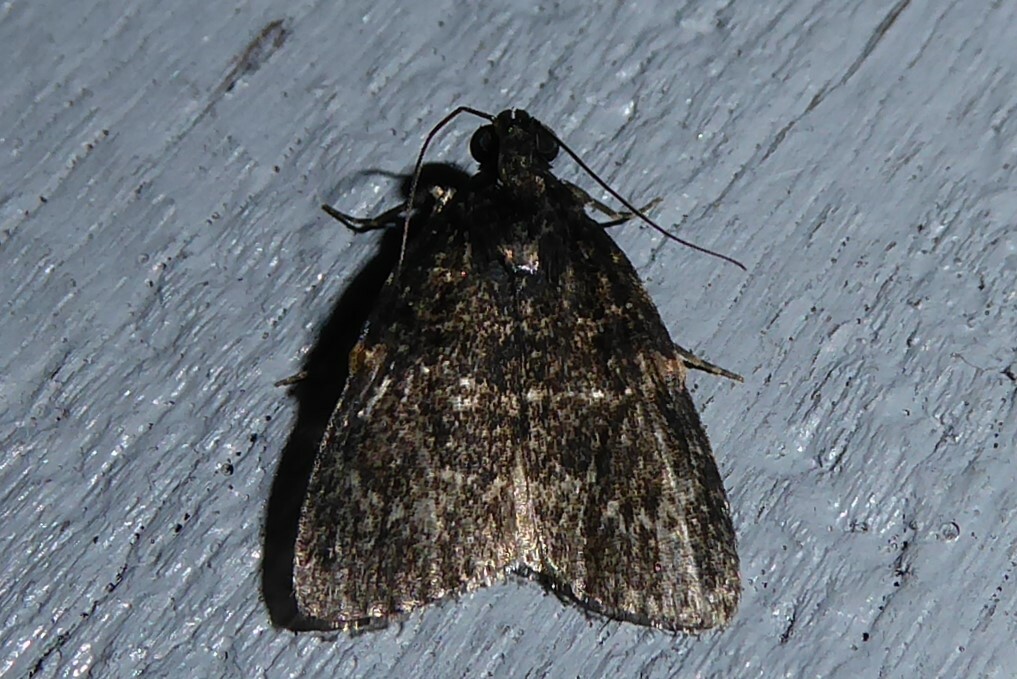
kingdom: Animalia
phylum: Arthropoda
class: Insecta
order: Lepidoptera
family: Pyralidae
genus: Stericta
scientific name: Stericta carbonalis
